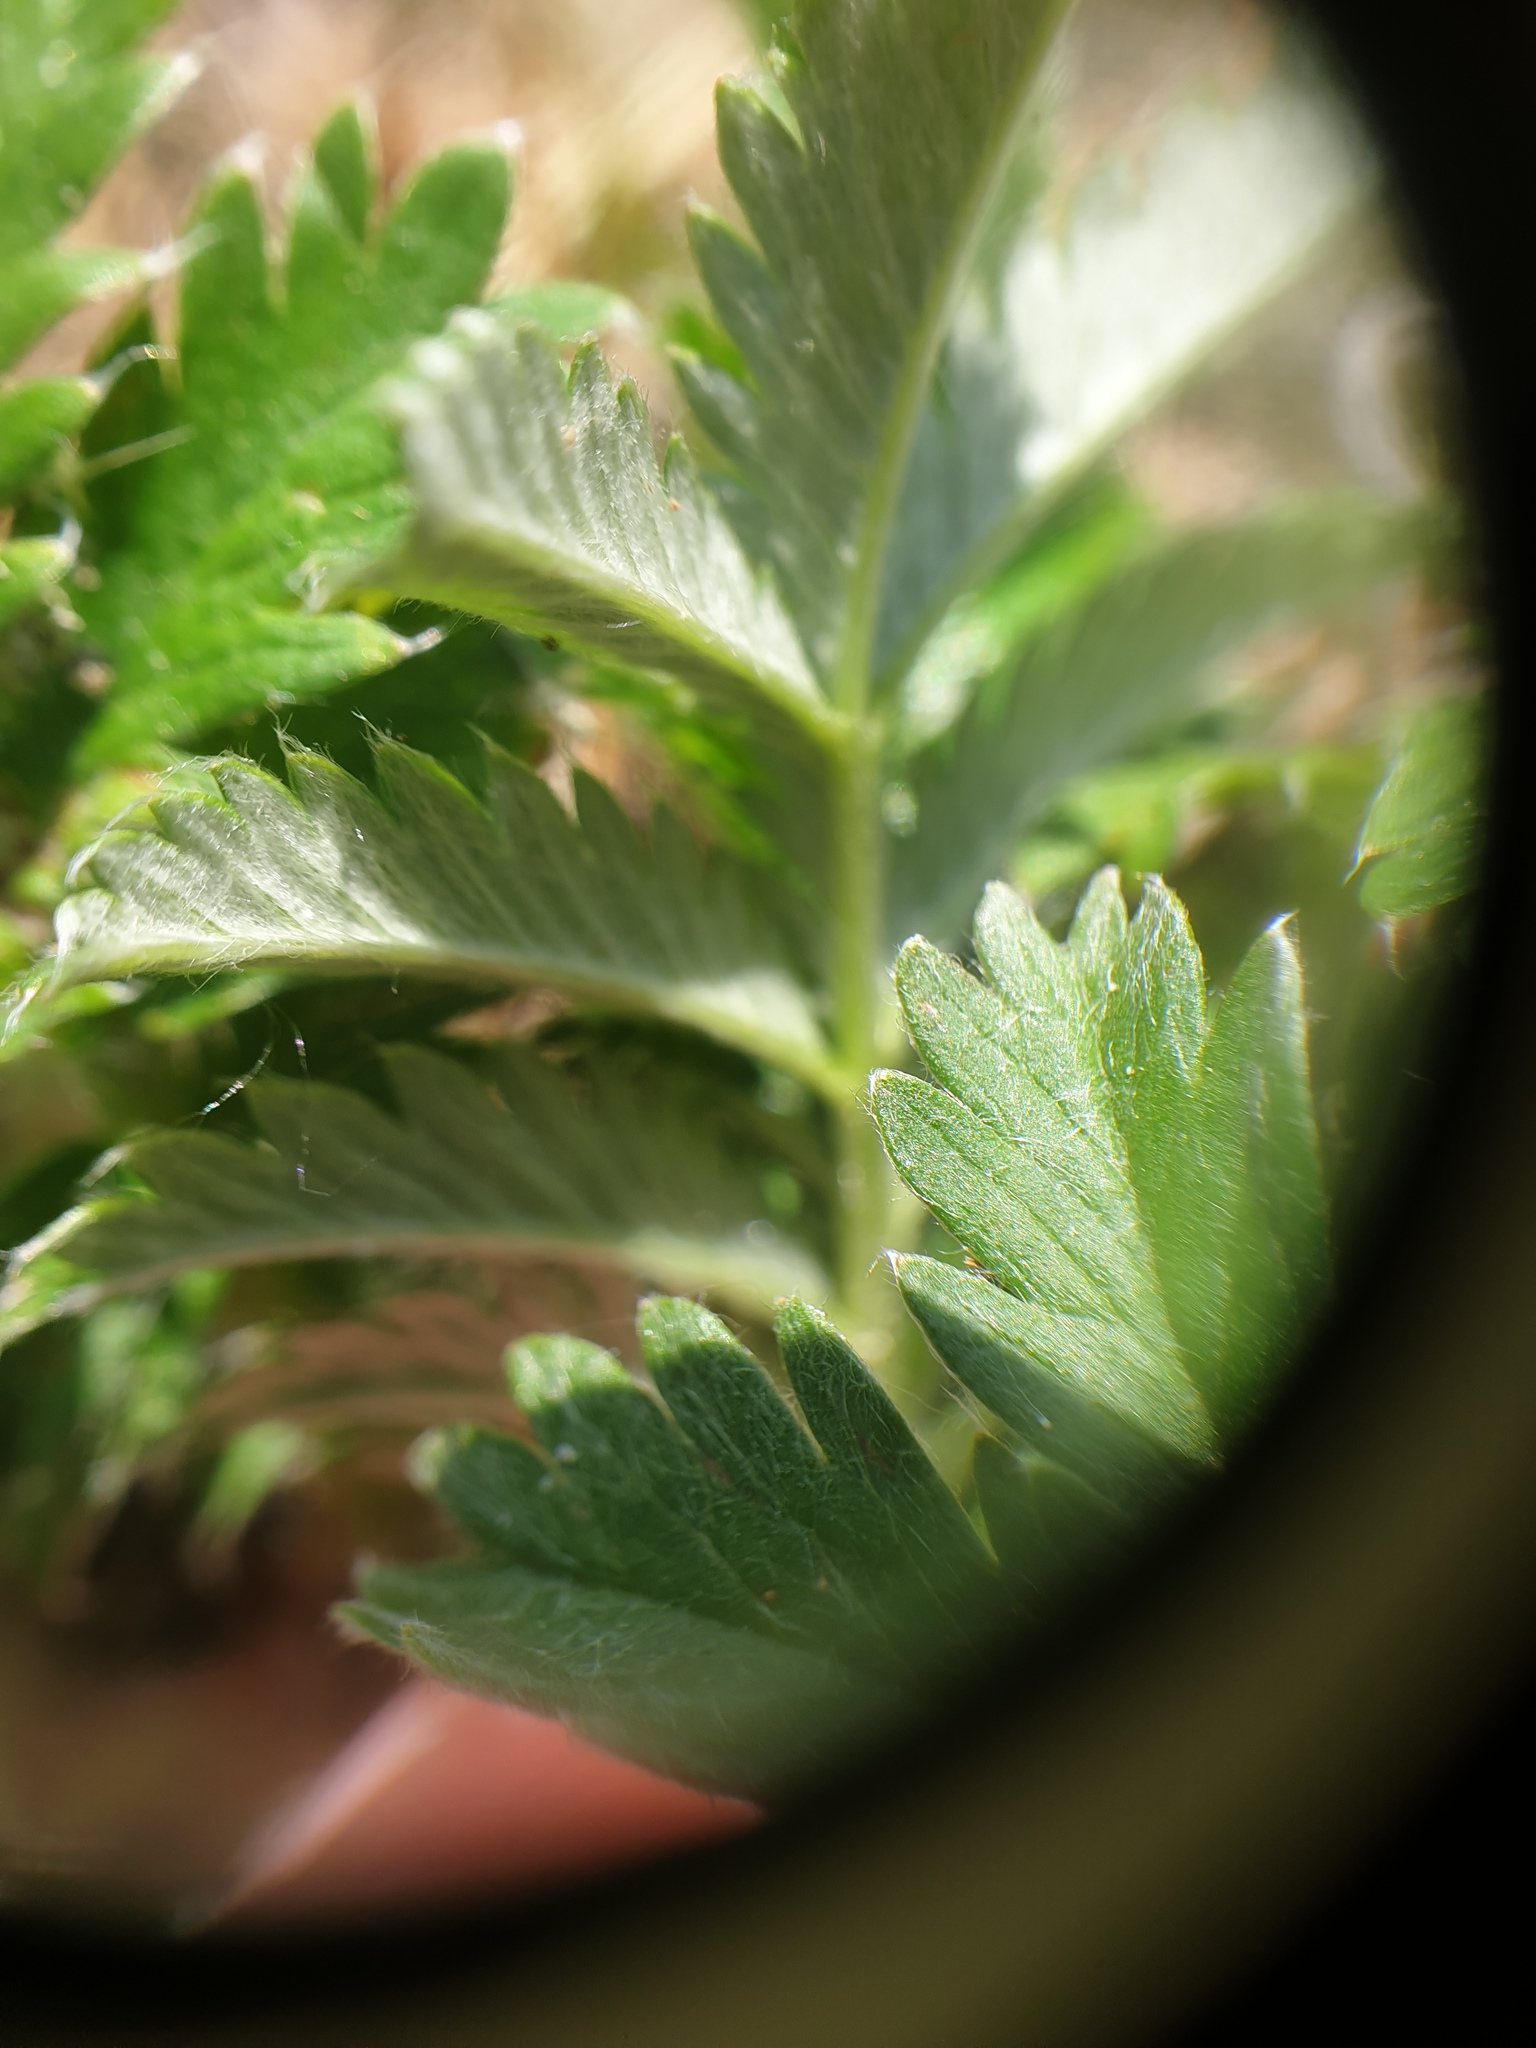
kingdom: Plantae
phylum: Tracheophyta
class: Magnoliopsida
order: Rosales
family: Rosaceae
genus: Argentina
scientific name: Argentina anserina
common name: Common silverweed
